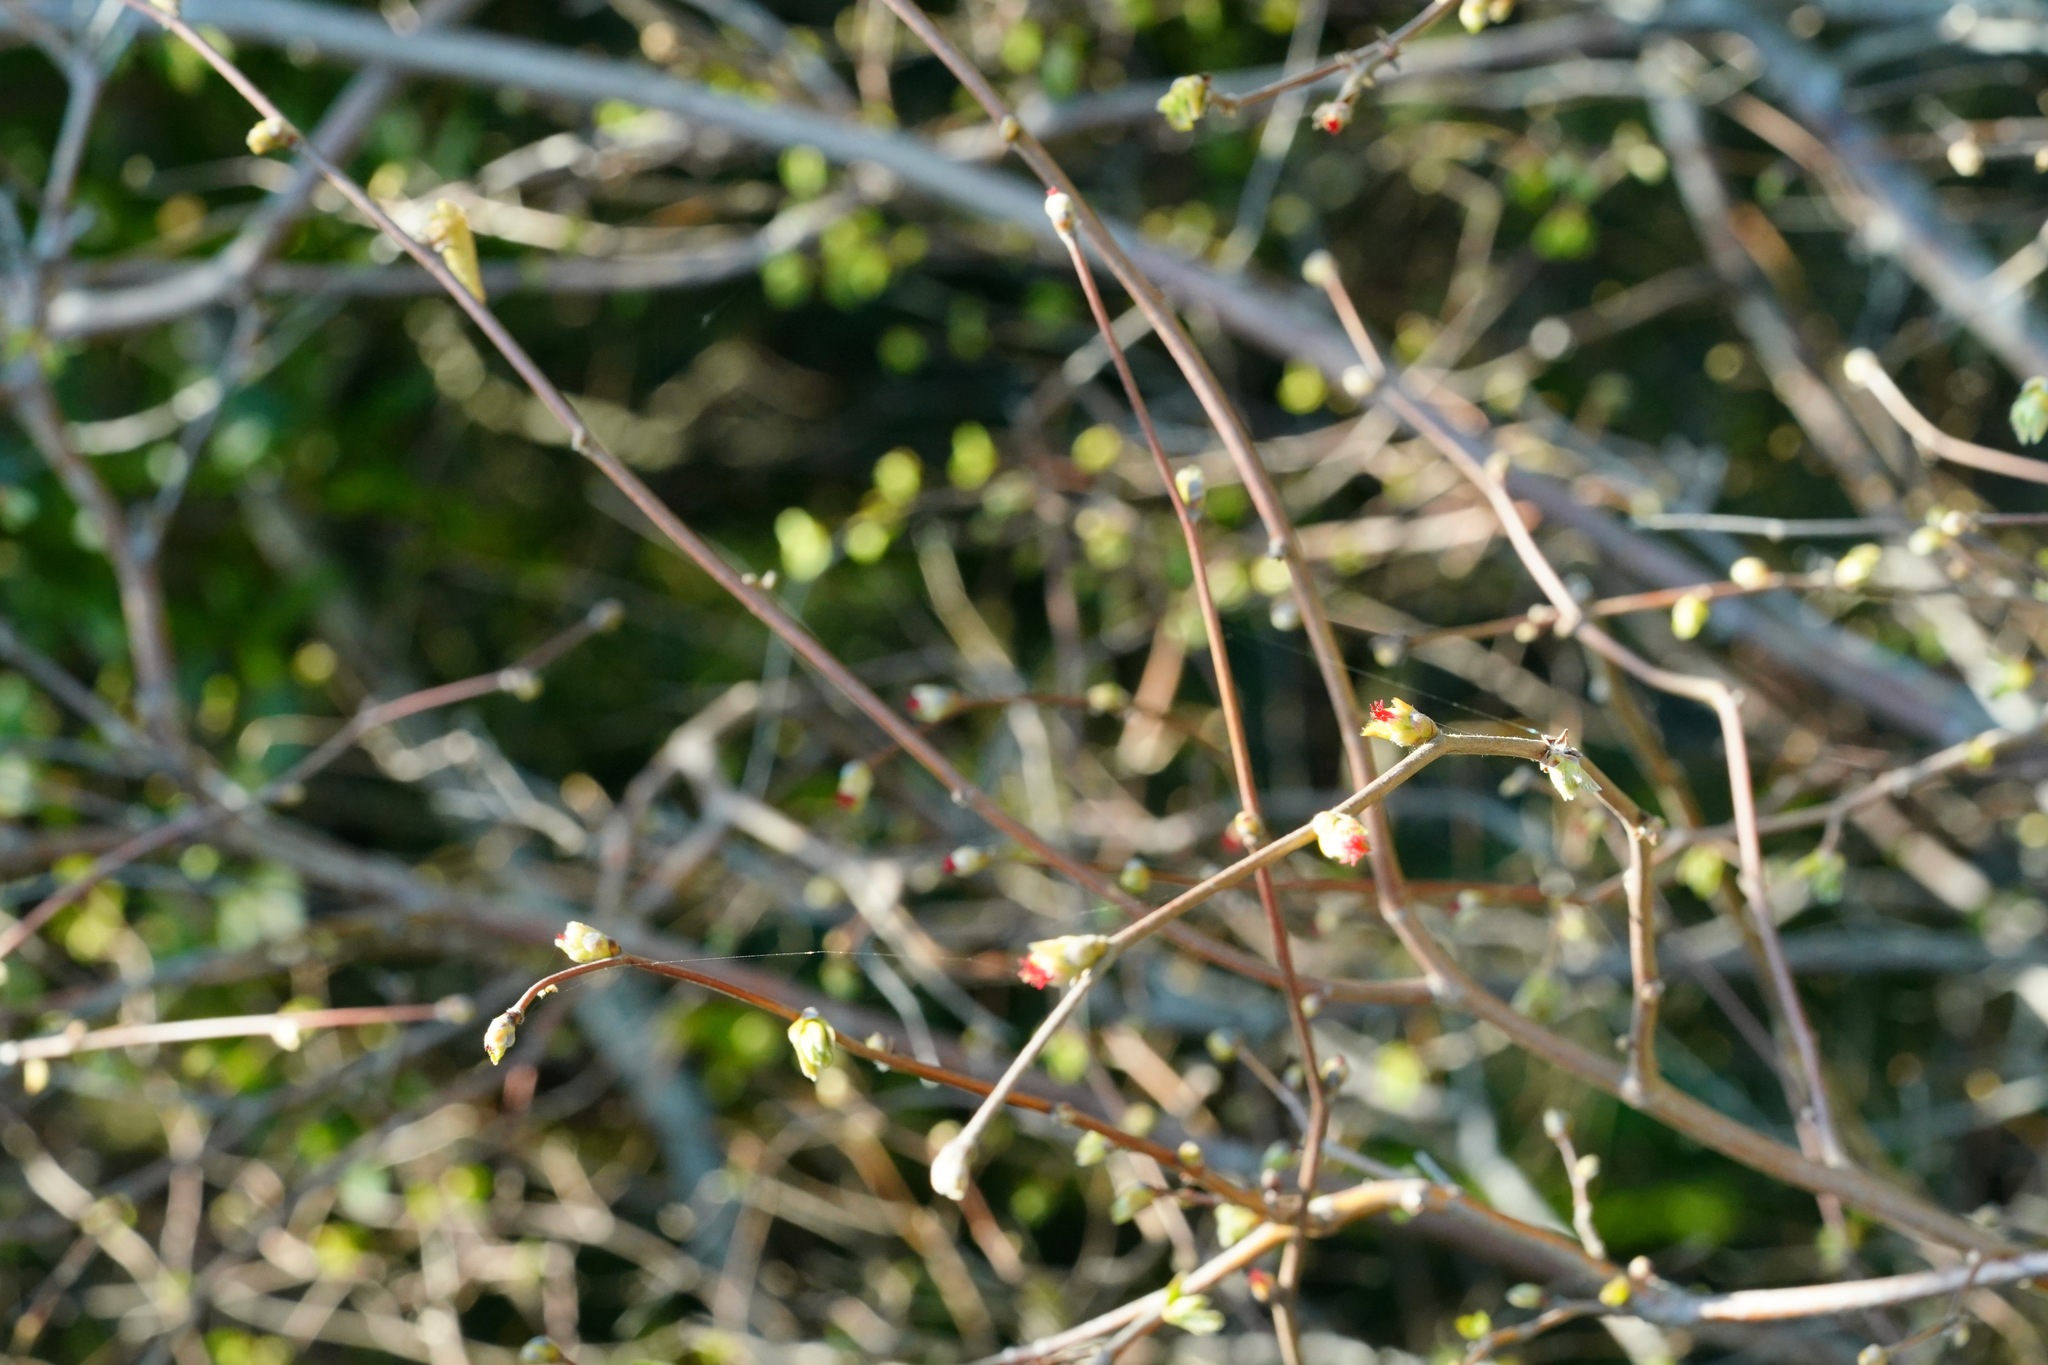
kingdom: Plantae
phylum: Tracheophyta
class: Magnoliopsida
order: Fagales
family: Betulaceae
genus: Corylus
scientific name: Corylus cornuta
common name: Beaked hazel
